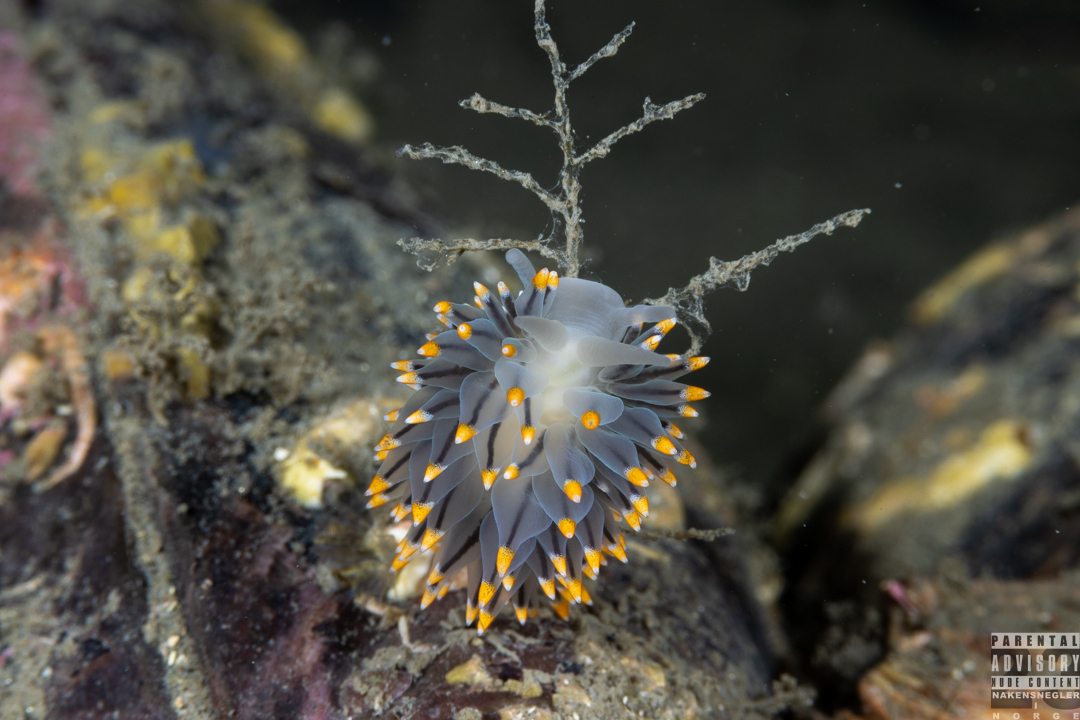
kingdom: Animalia
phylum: Mollusca
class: Gastropoda
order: Nudibranchia
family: Eubranchidae
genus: Eubranchus
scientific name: Eubranchus tricolor
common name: Painted balloon aeolis
